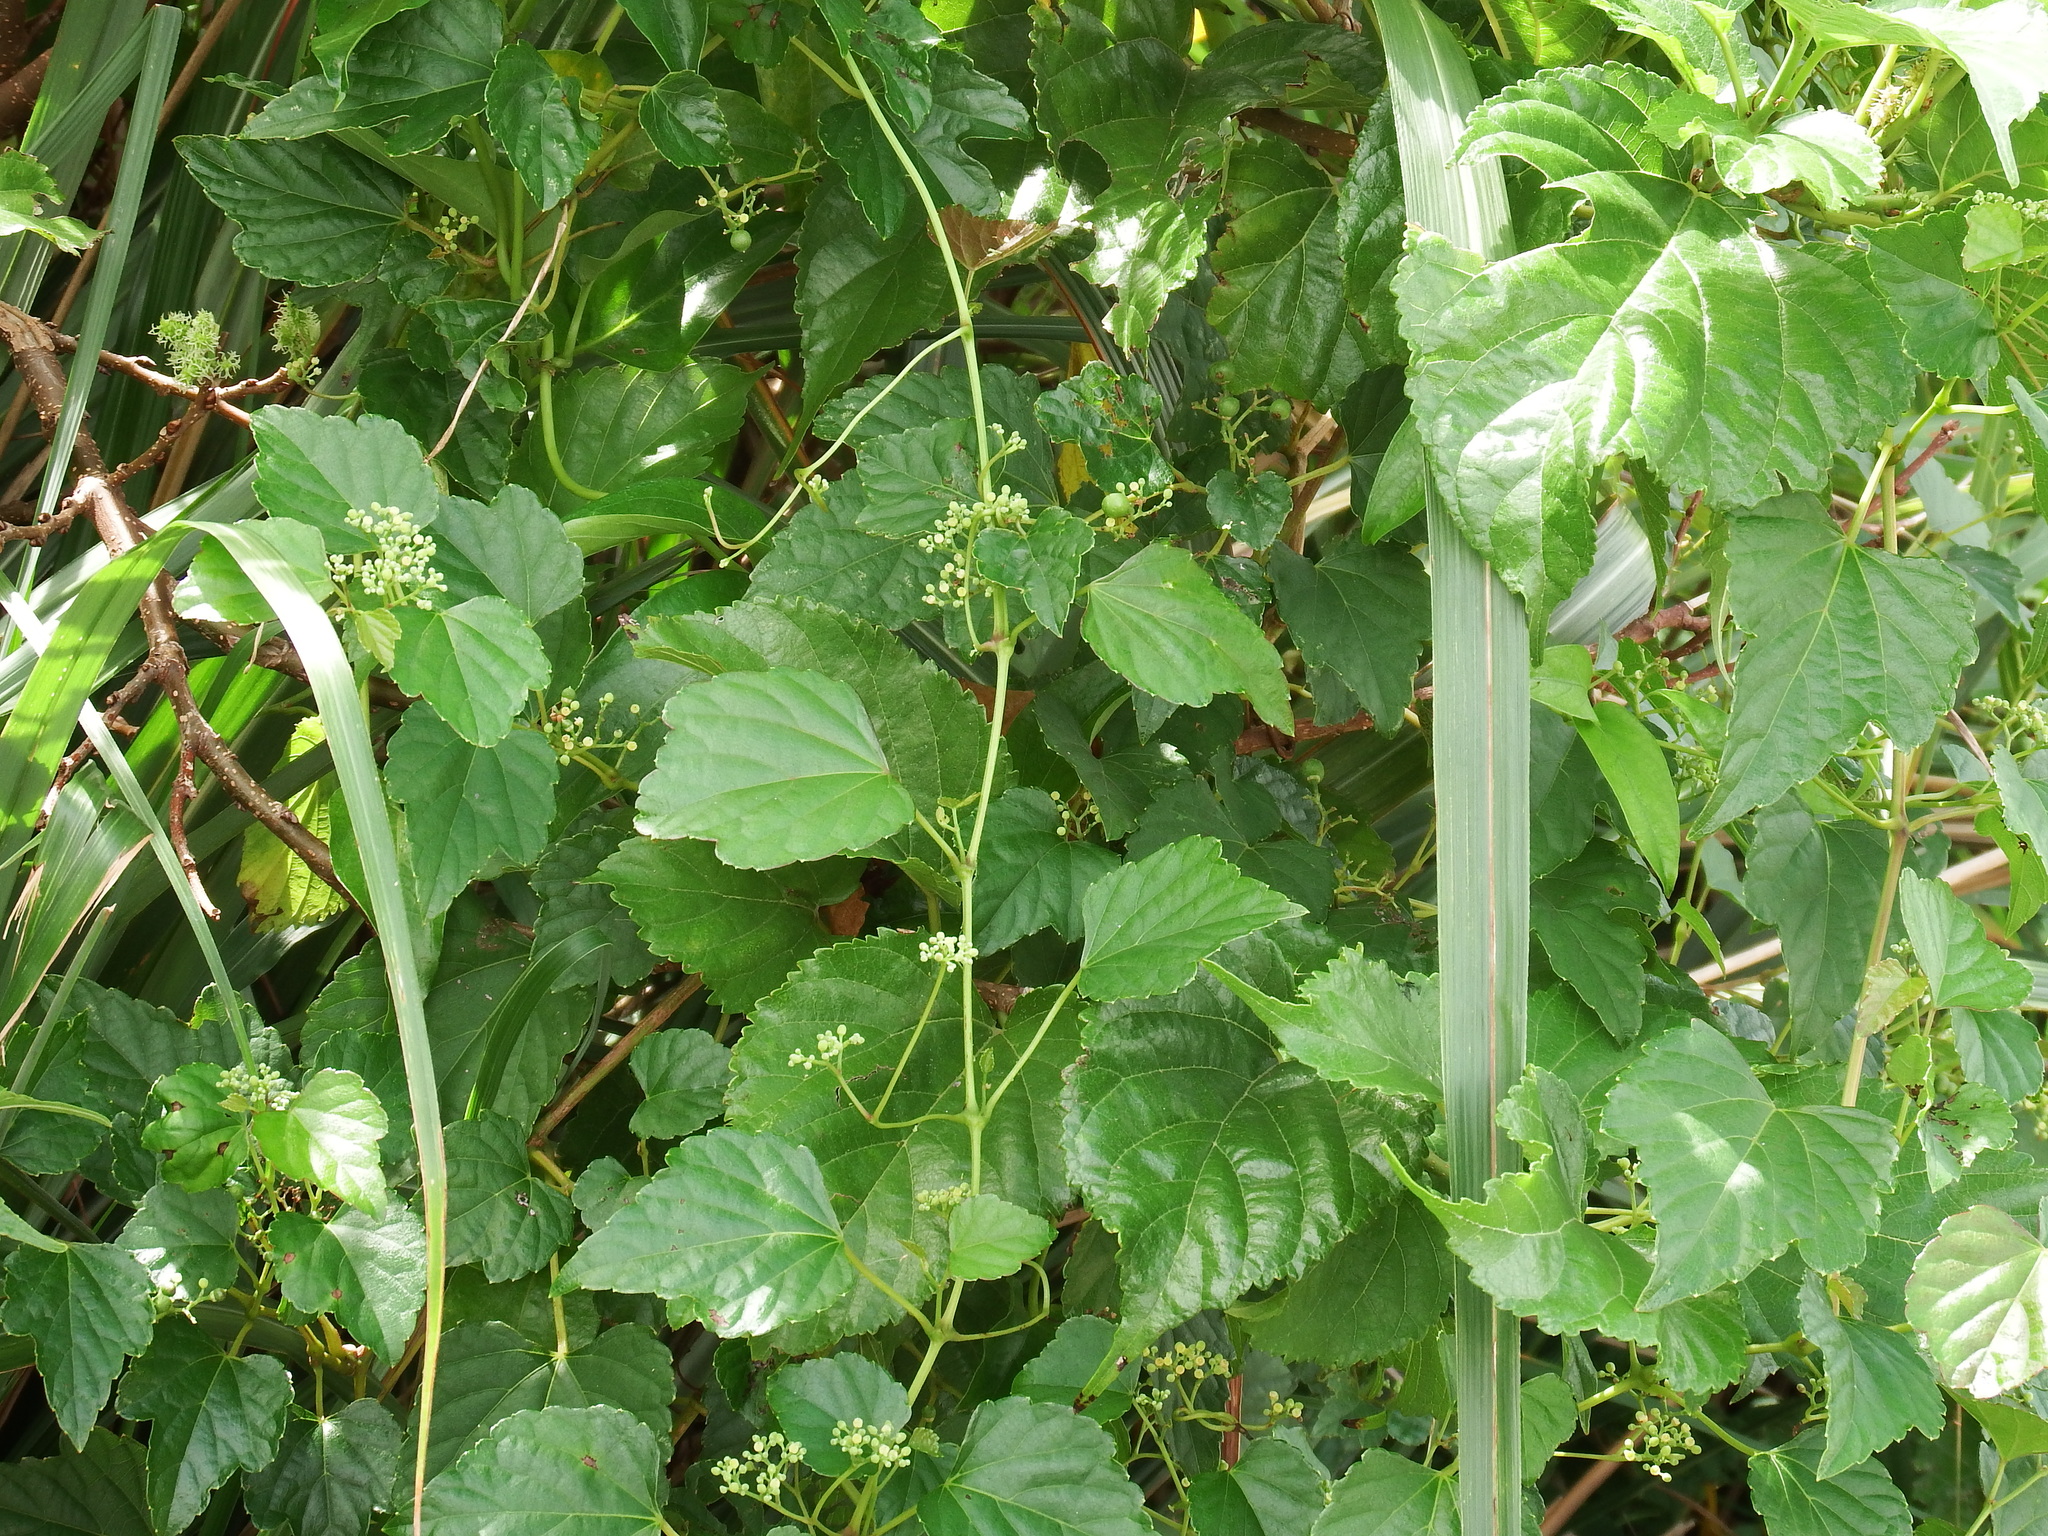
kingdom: Plantae
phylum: Tracheophyta
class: Magnoliopsida
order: Vitales
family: Vitaceae
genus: Ampelopsis
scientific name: Ampelopsis glandulosa
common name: Amur peppervine
